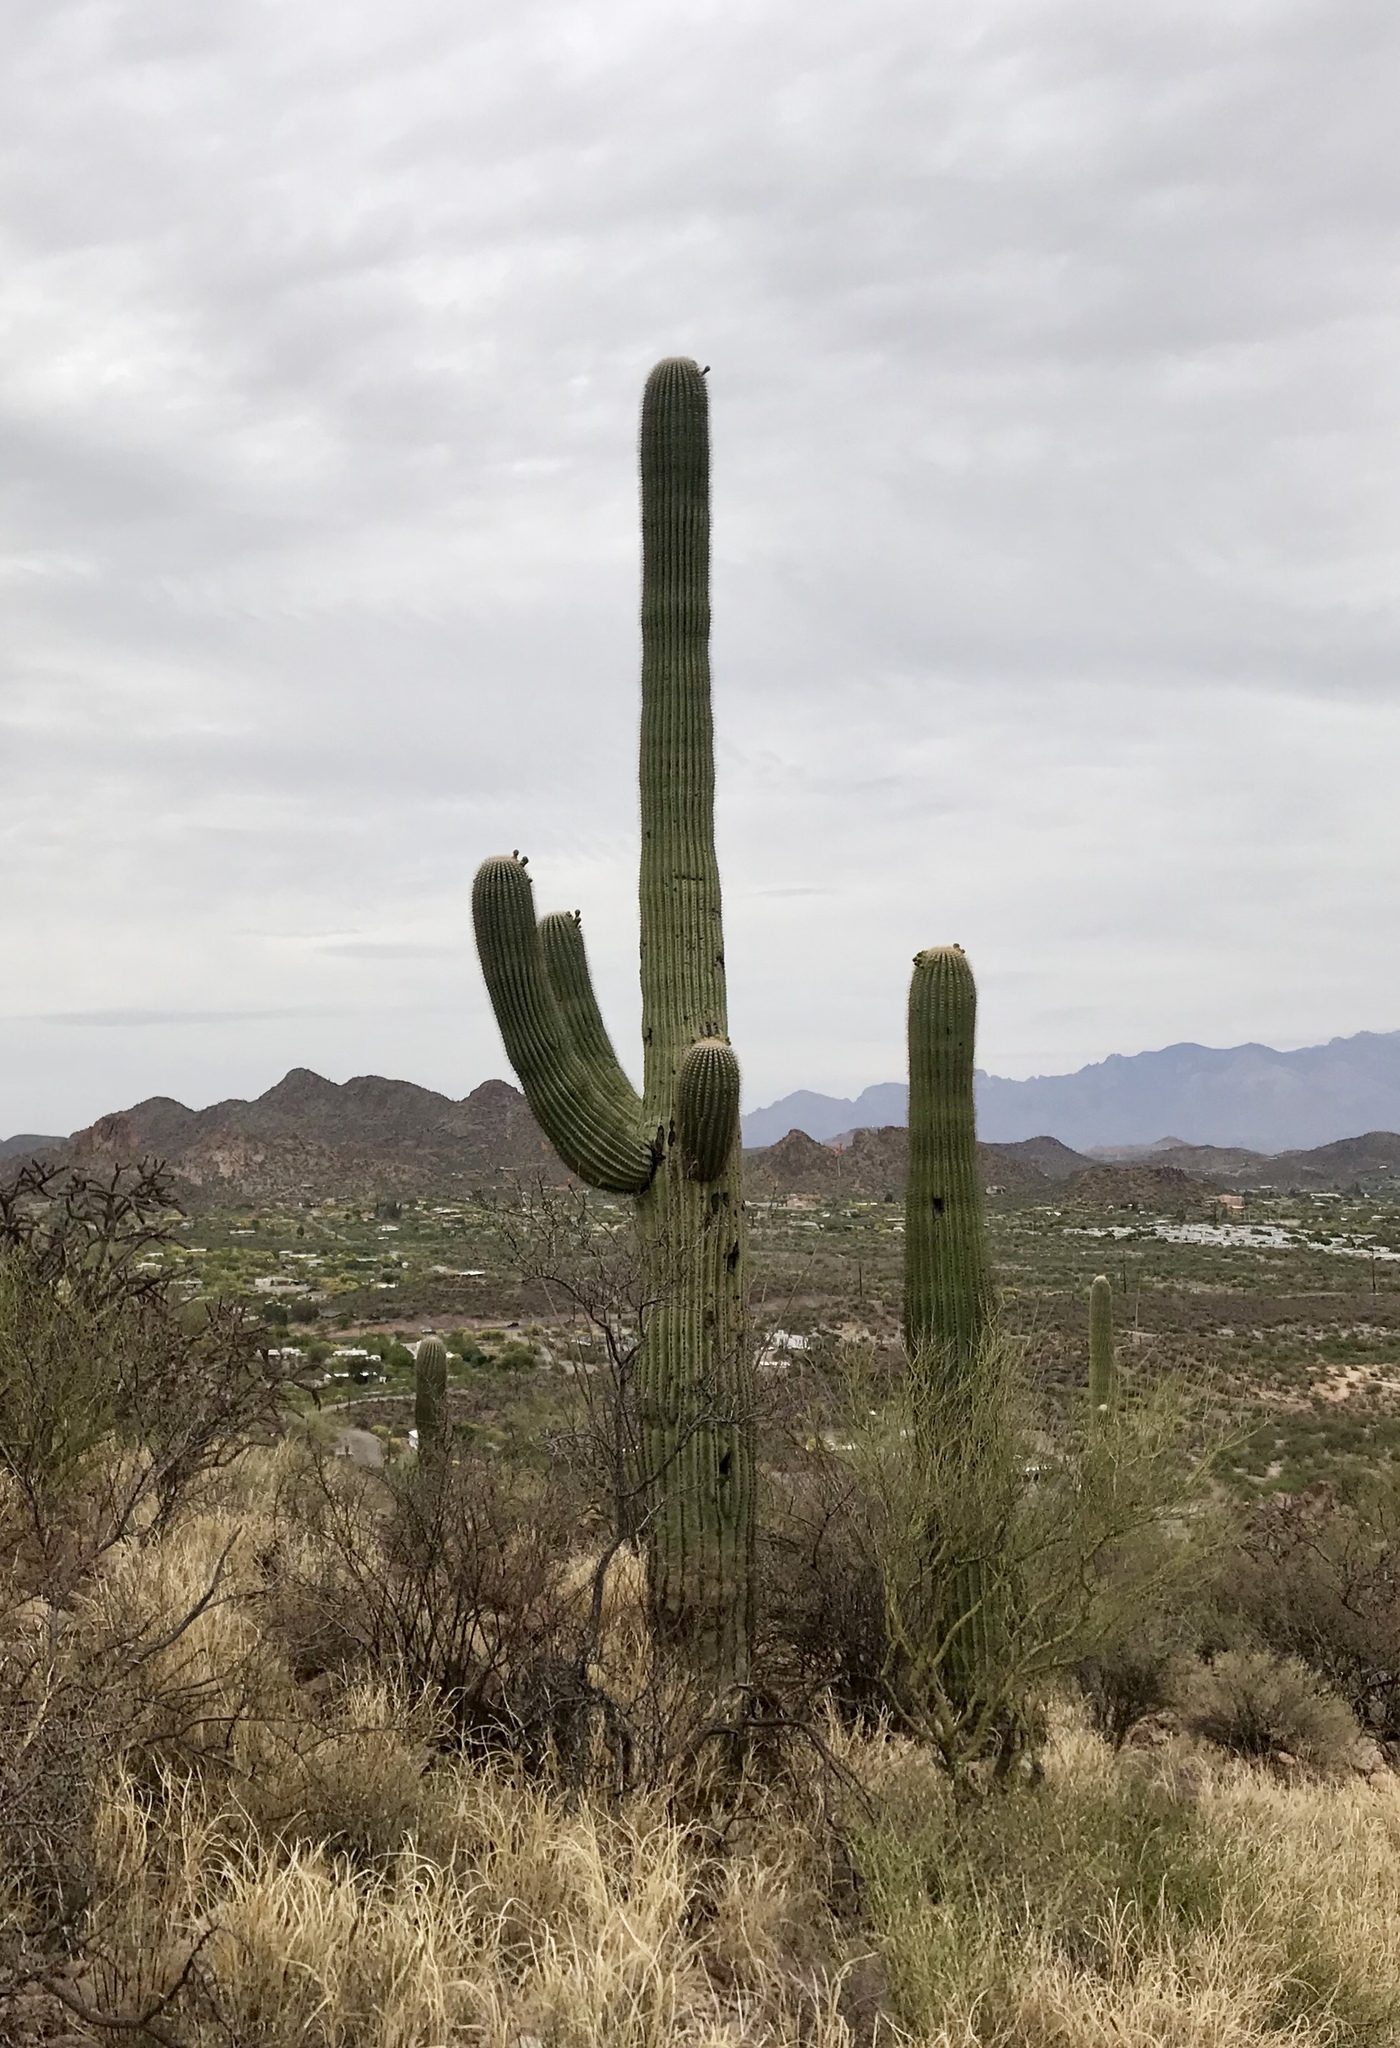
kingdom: Plantae
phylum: Tracheophyta
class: Magnoliopsida
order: Caryophyllales
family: Cactaceae
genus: Carnegiea
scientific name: Carnegiea gigantea
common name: Saguaro
